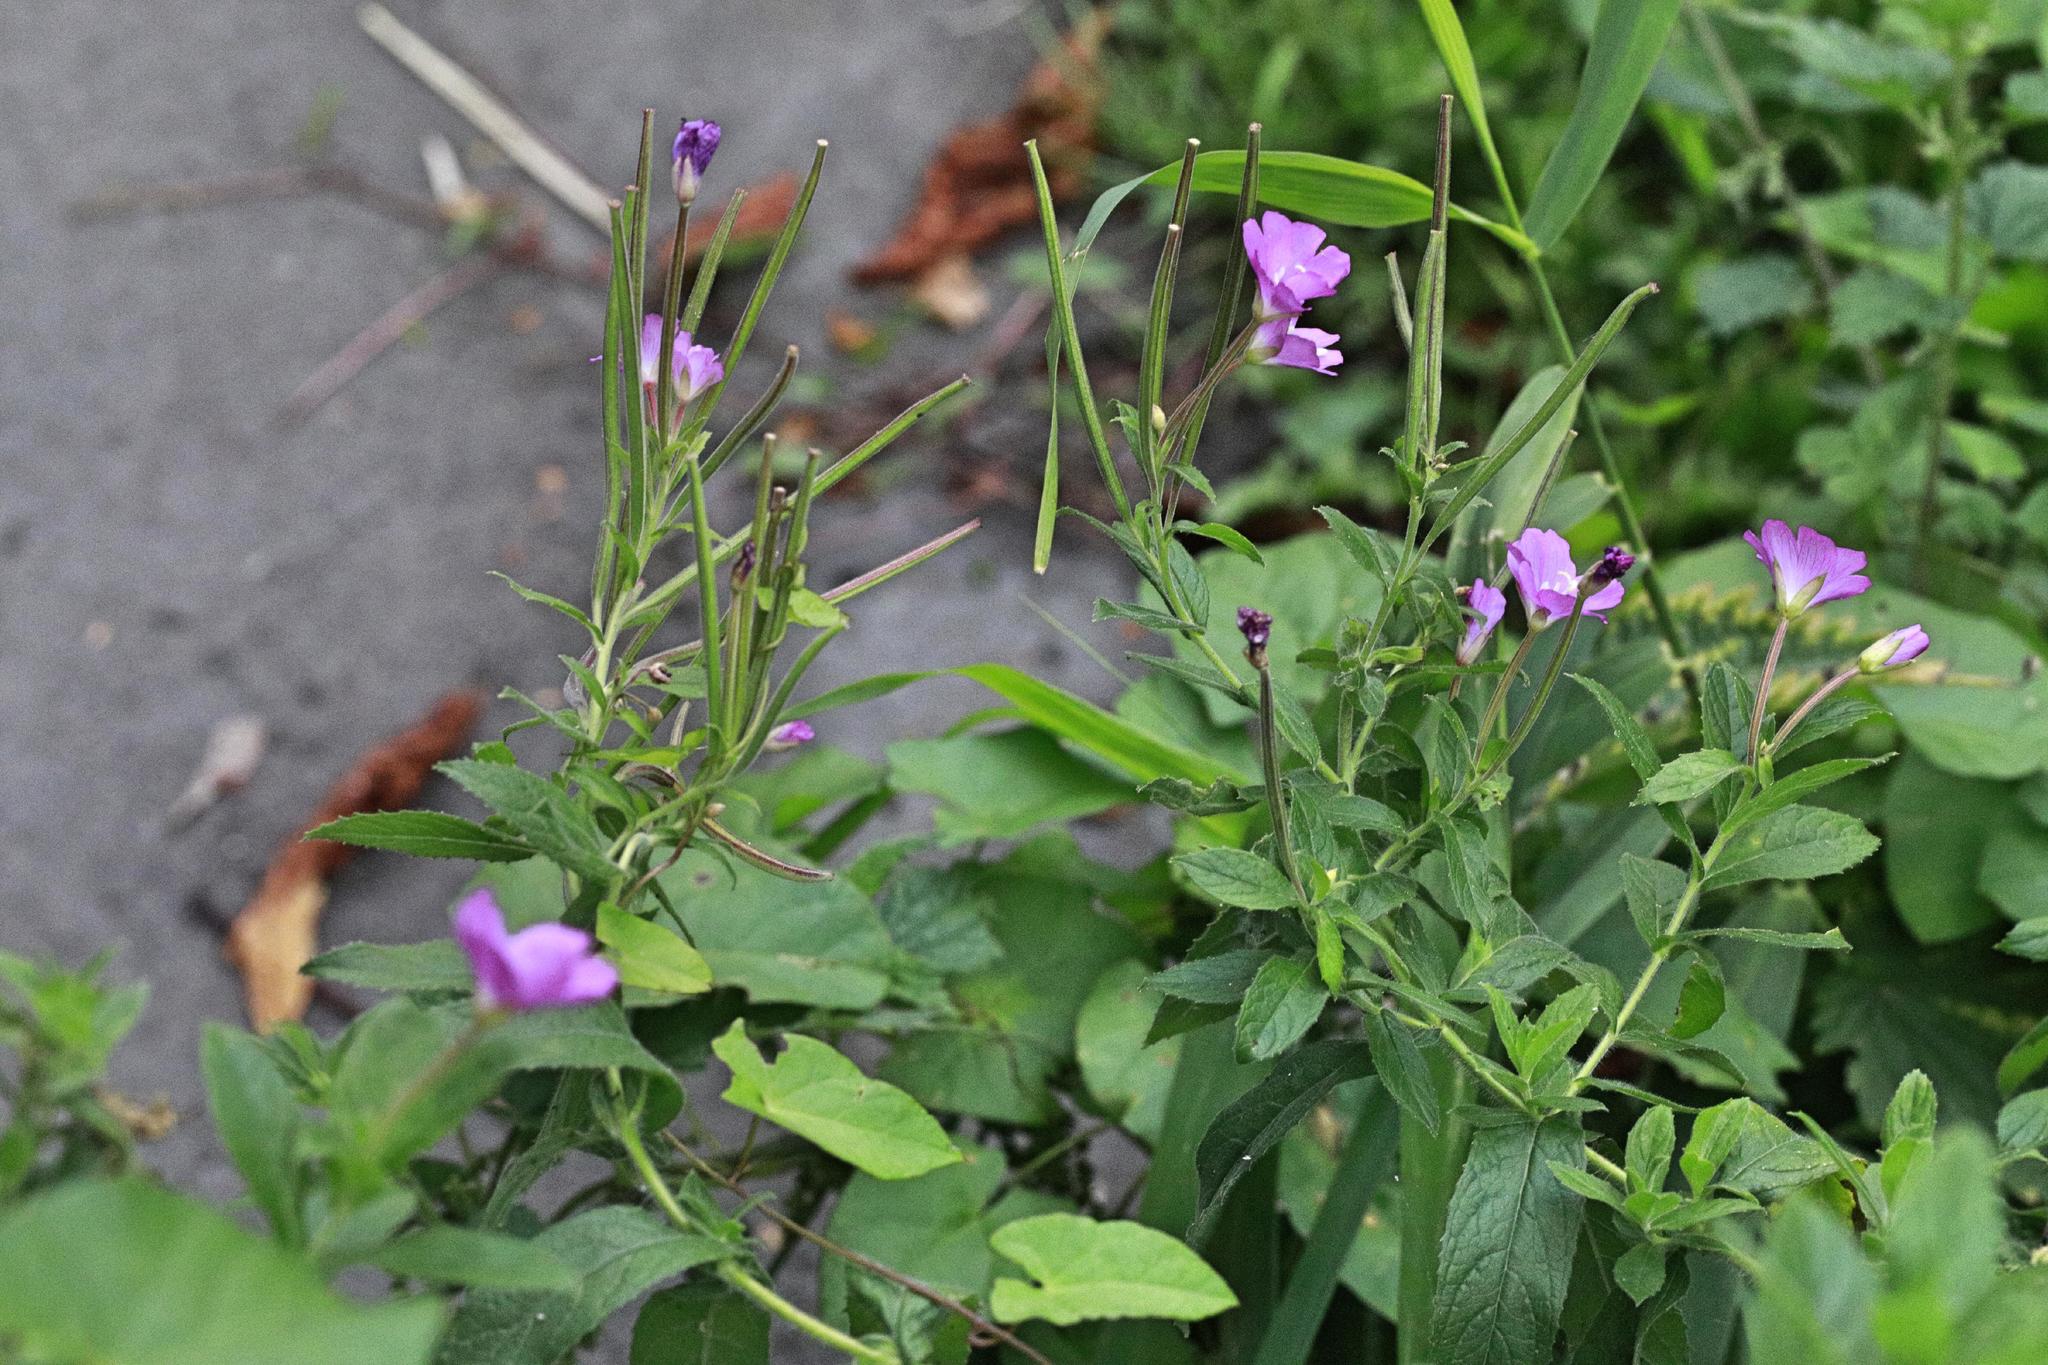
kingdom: Plantae
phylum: Tracheophyta
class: Magnoliopsida
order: Myrtales
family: Onagraceae
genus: Epilobium
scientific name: Epilobium hirsutum
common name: Great willowherb
